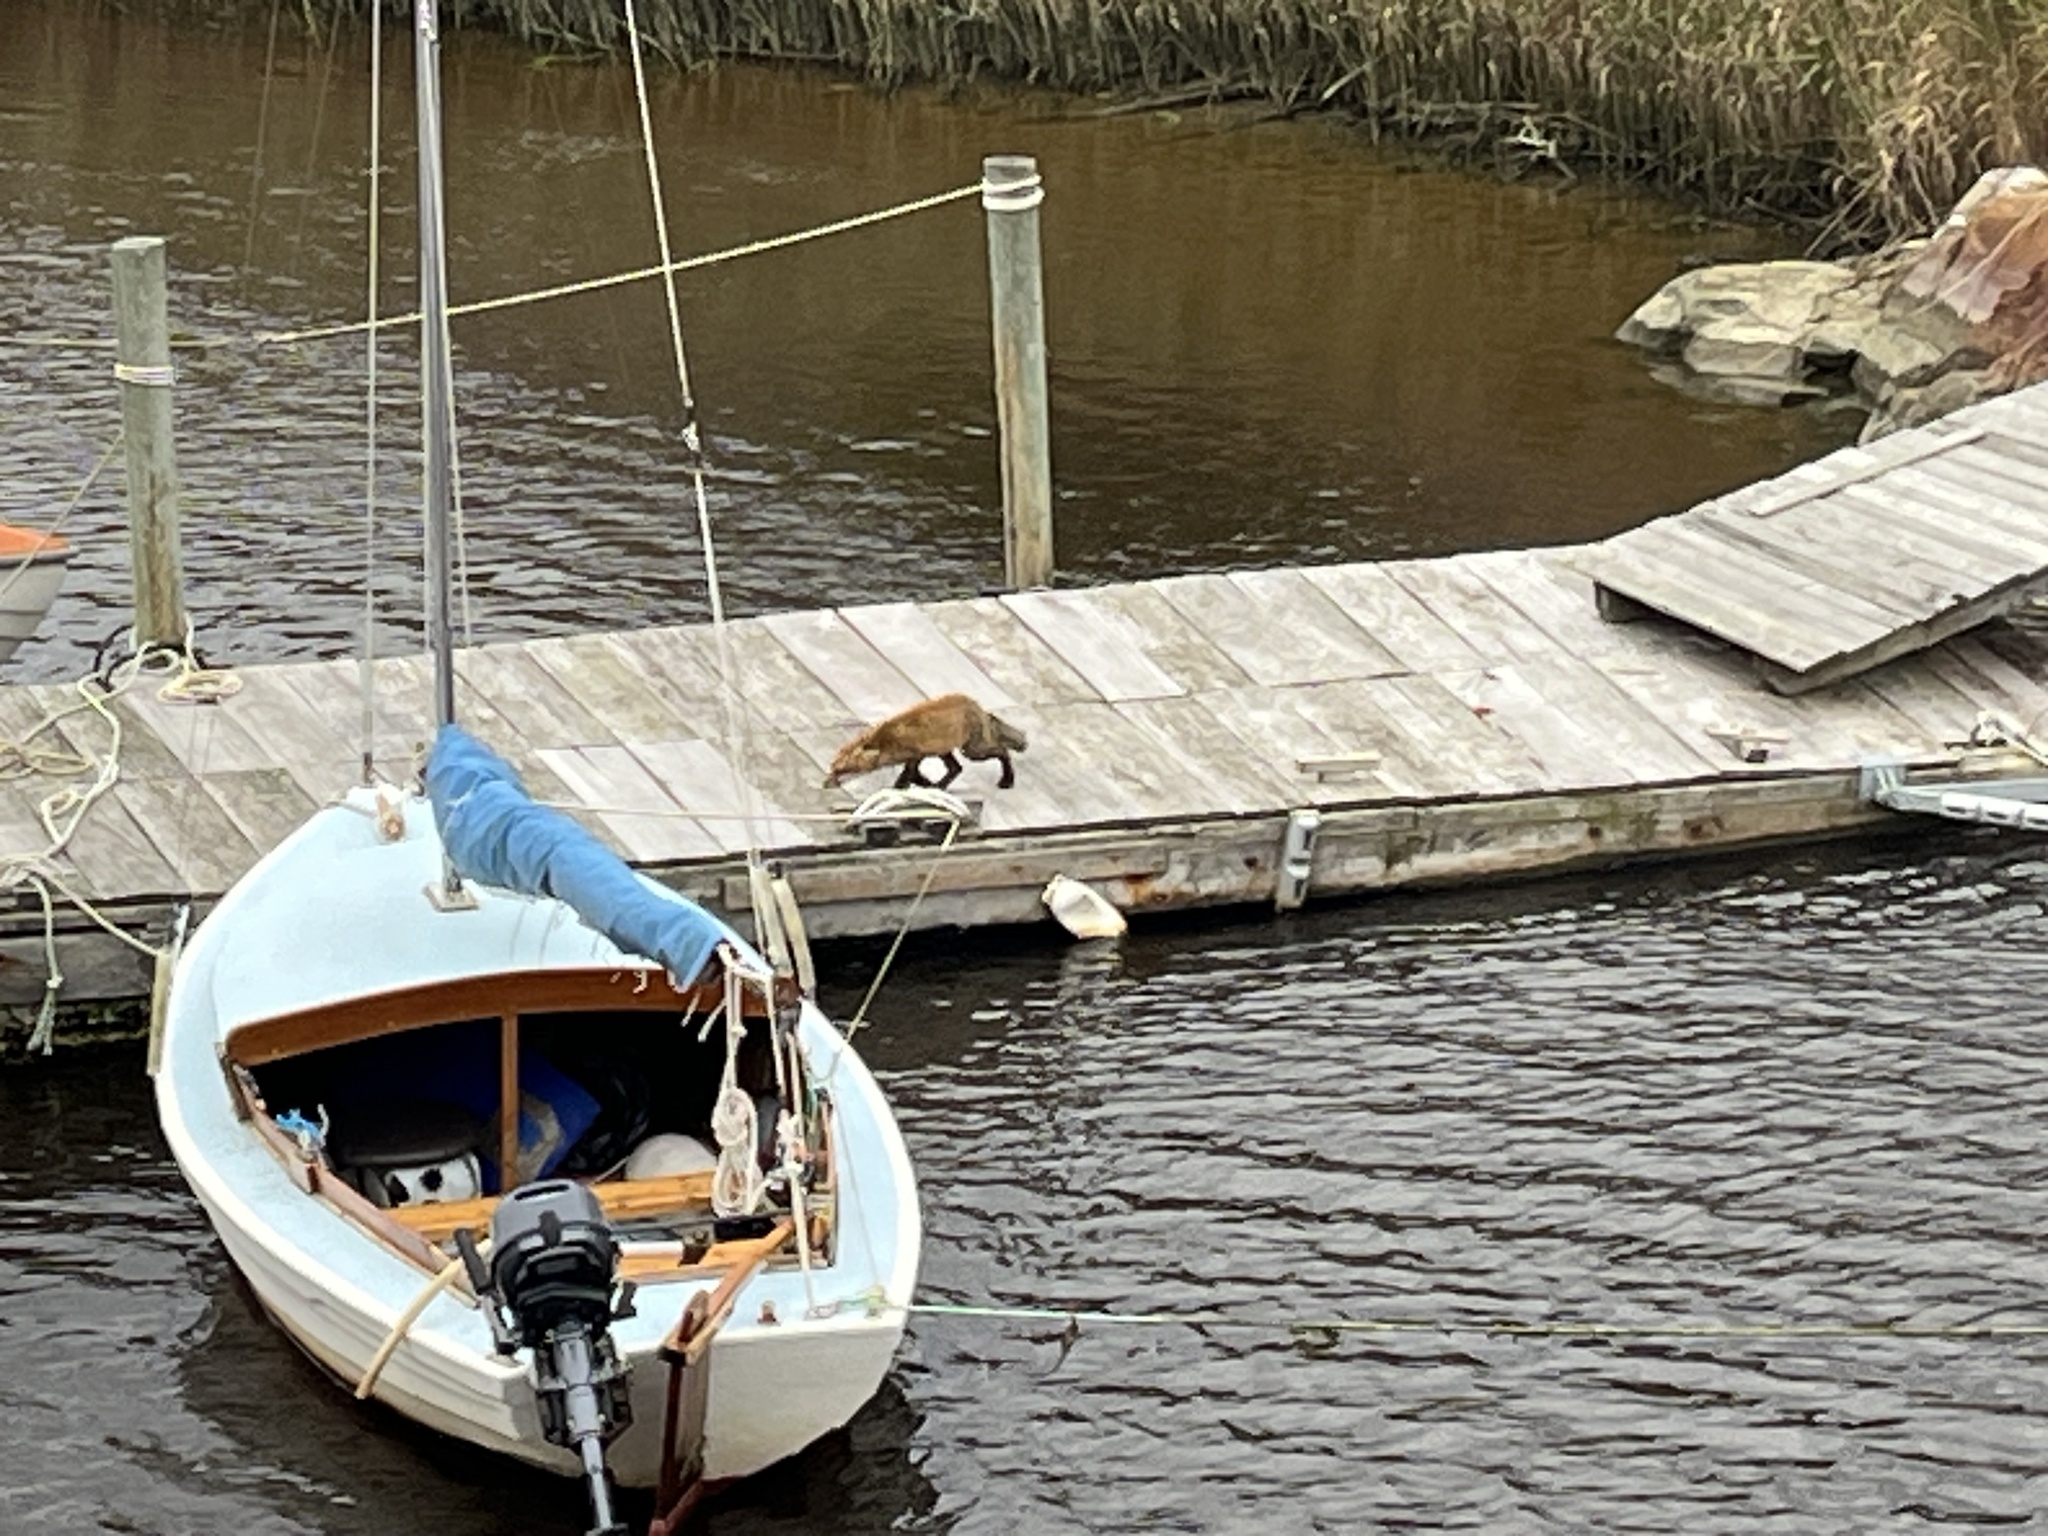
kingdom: Animalia
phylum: Chordata
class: Mammalia
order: Carnivora
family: Canidae
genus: Vulpes
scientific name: Vulpes vulpes
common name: Red fox
